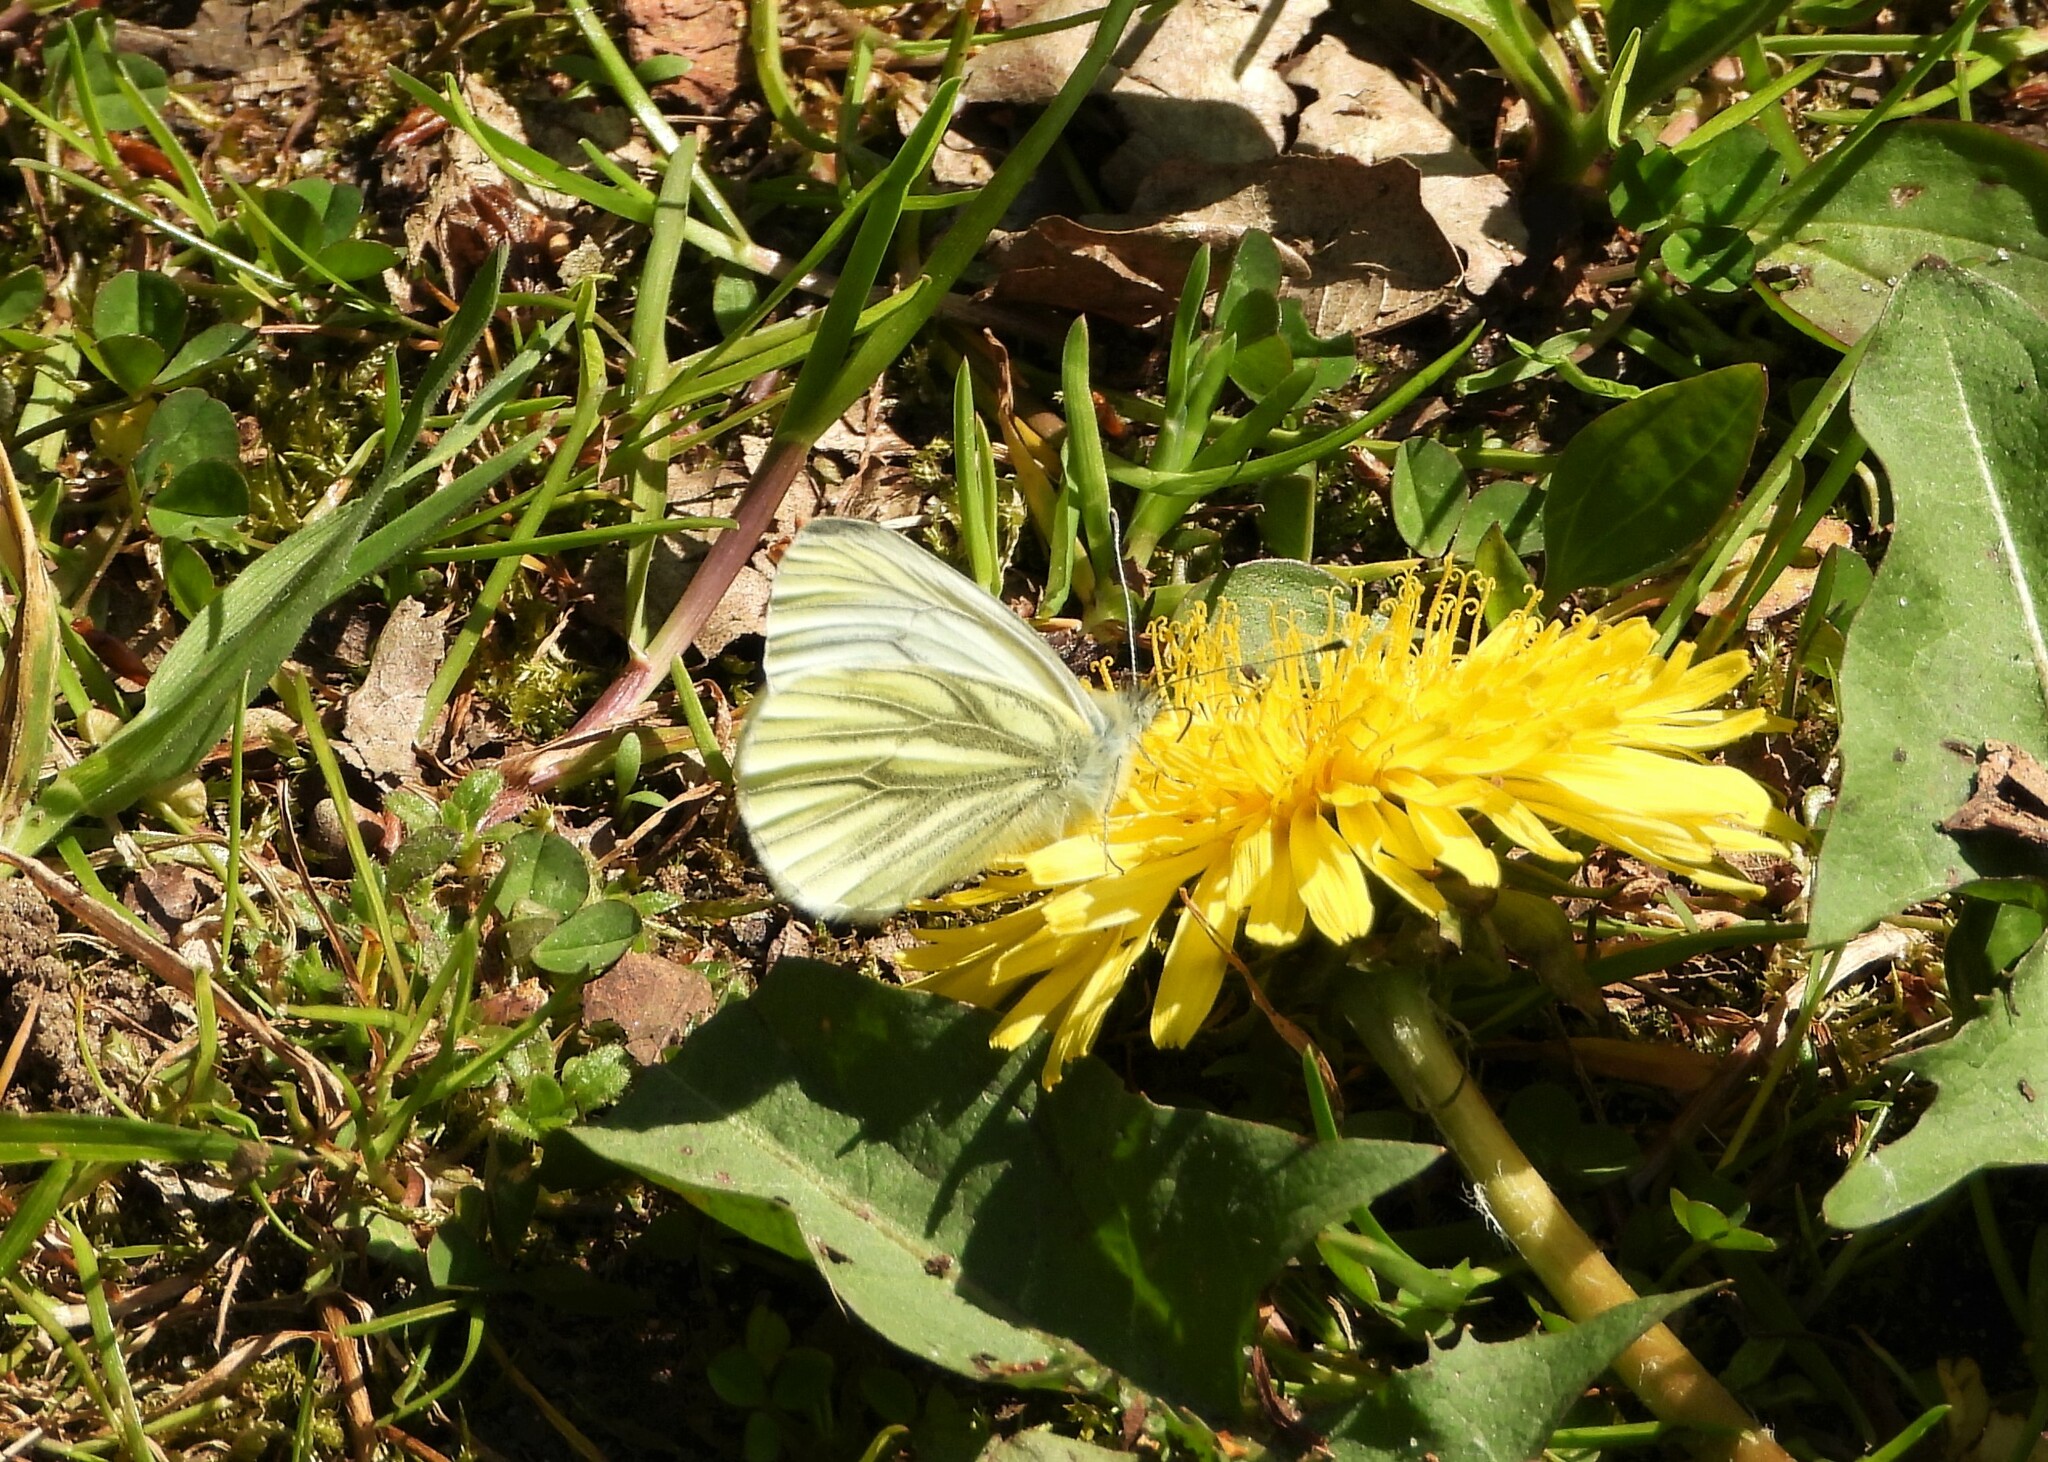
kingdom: Animalia
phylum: Arthropoda
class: Insecta
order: Lepidoptera
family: Pieridae
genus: Pieris
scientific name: Pieris napi
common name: Green-veined white
